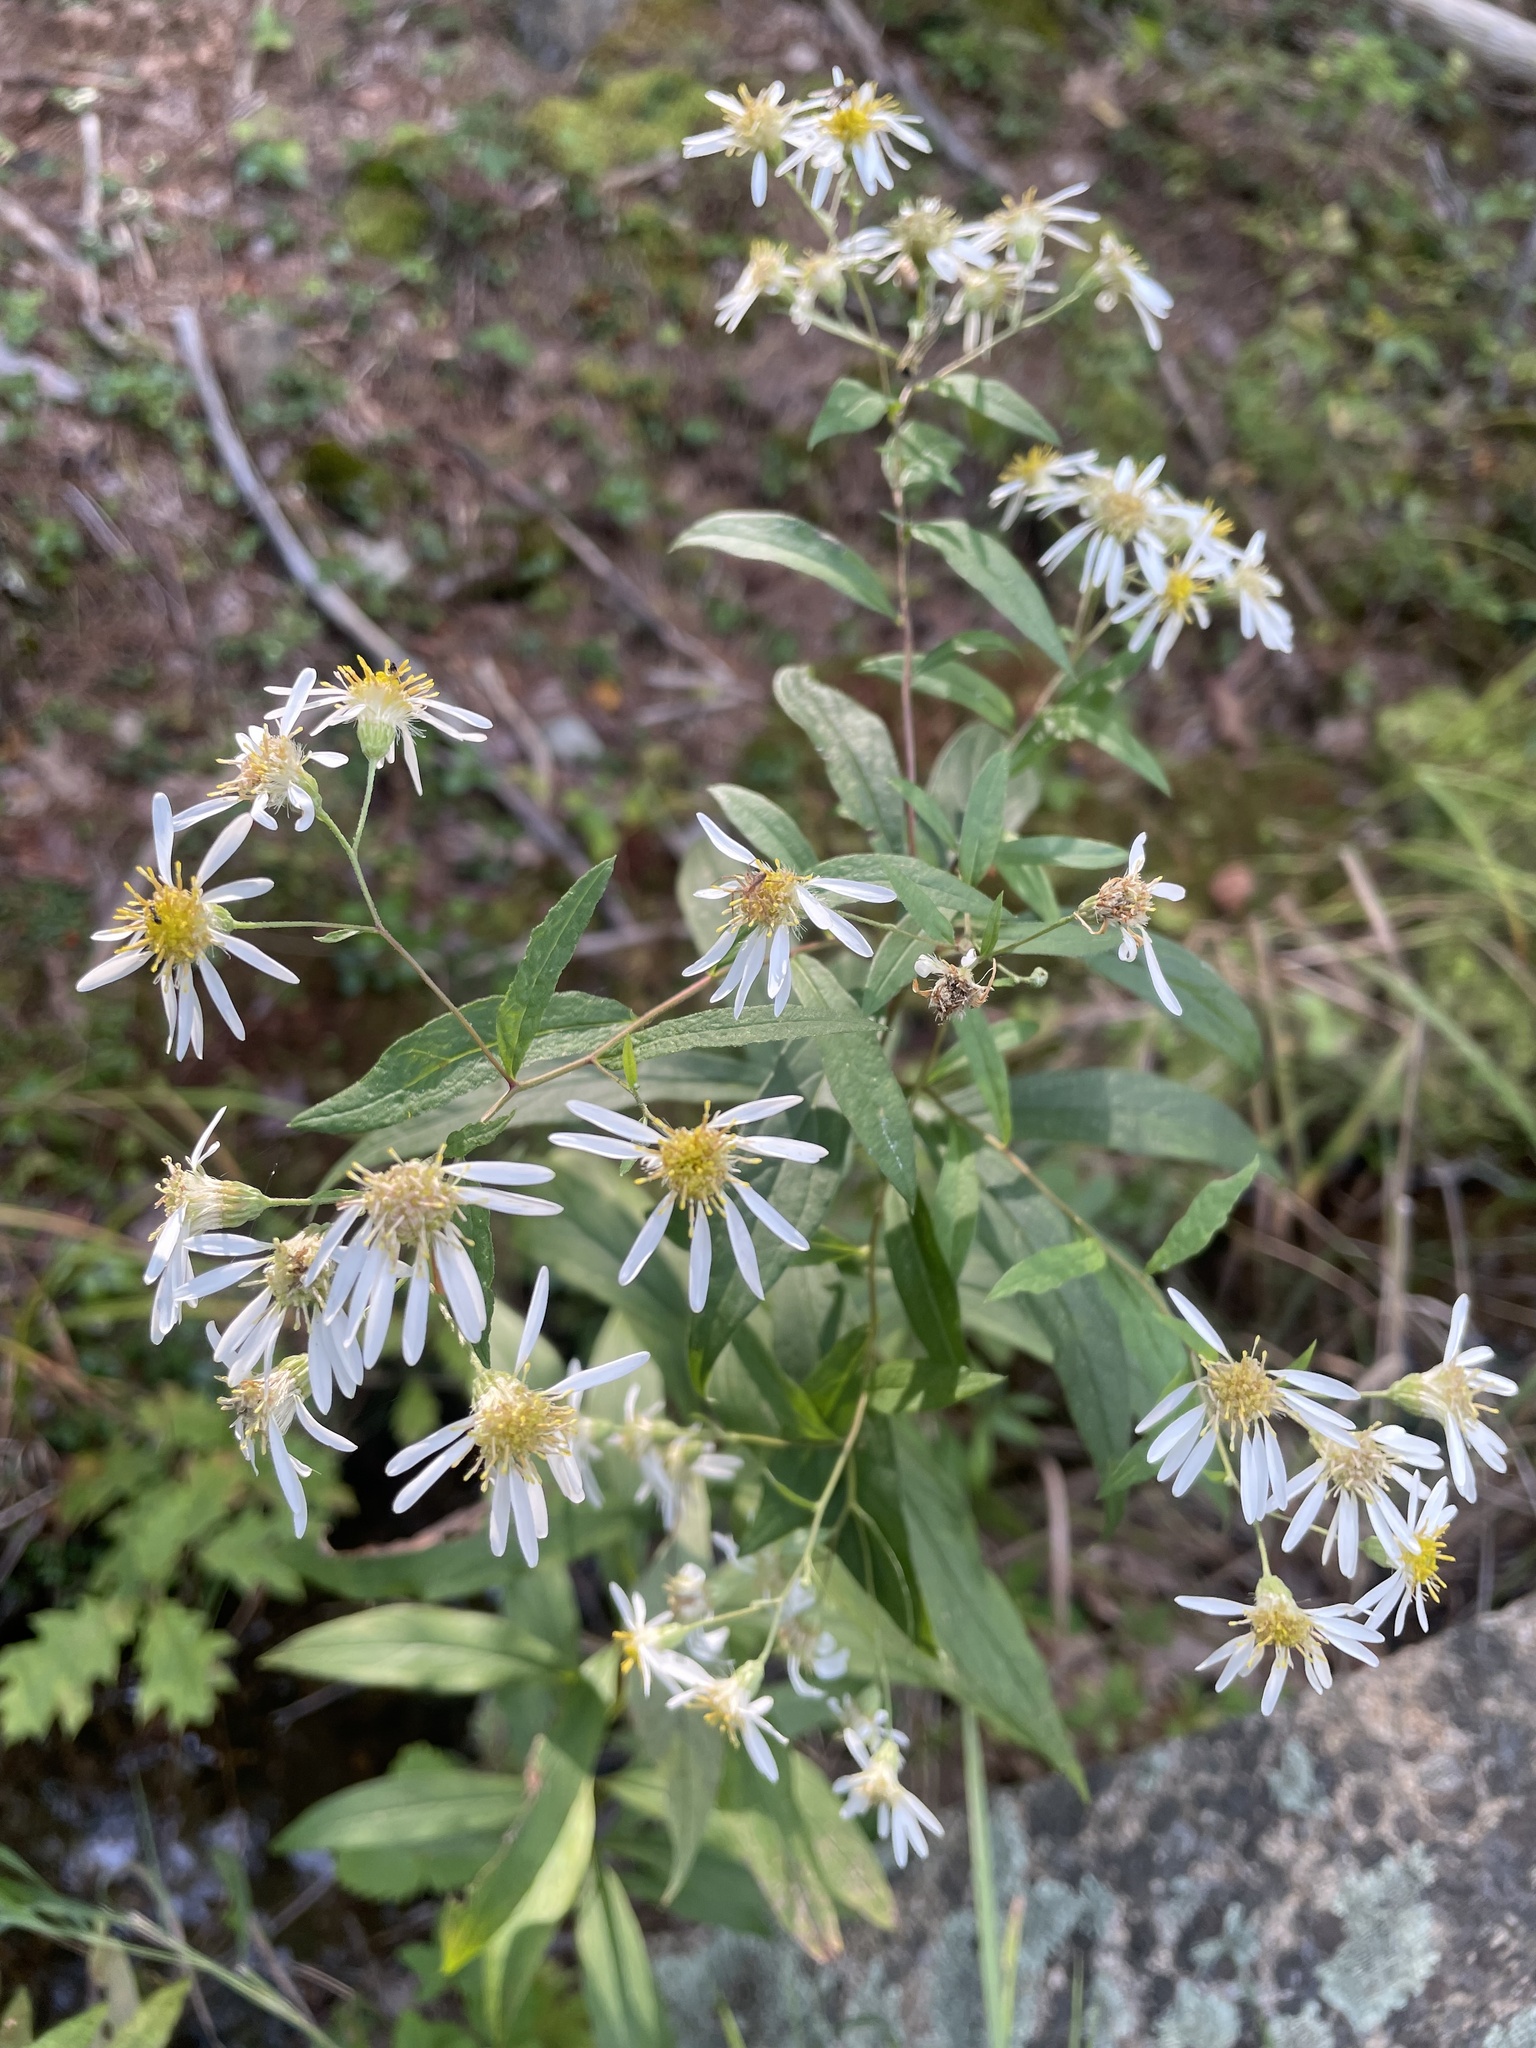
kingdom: Plantae
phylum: Tracheophyta
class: Magnoliopsida
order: Asterales
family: Asteraceae
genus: Doellingeria
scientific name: Doellingeria umbellata
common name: Flat-top white aster
